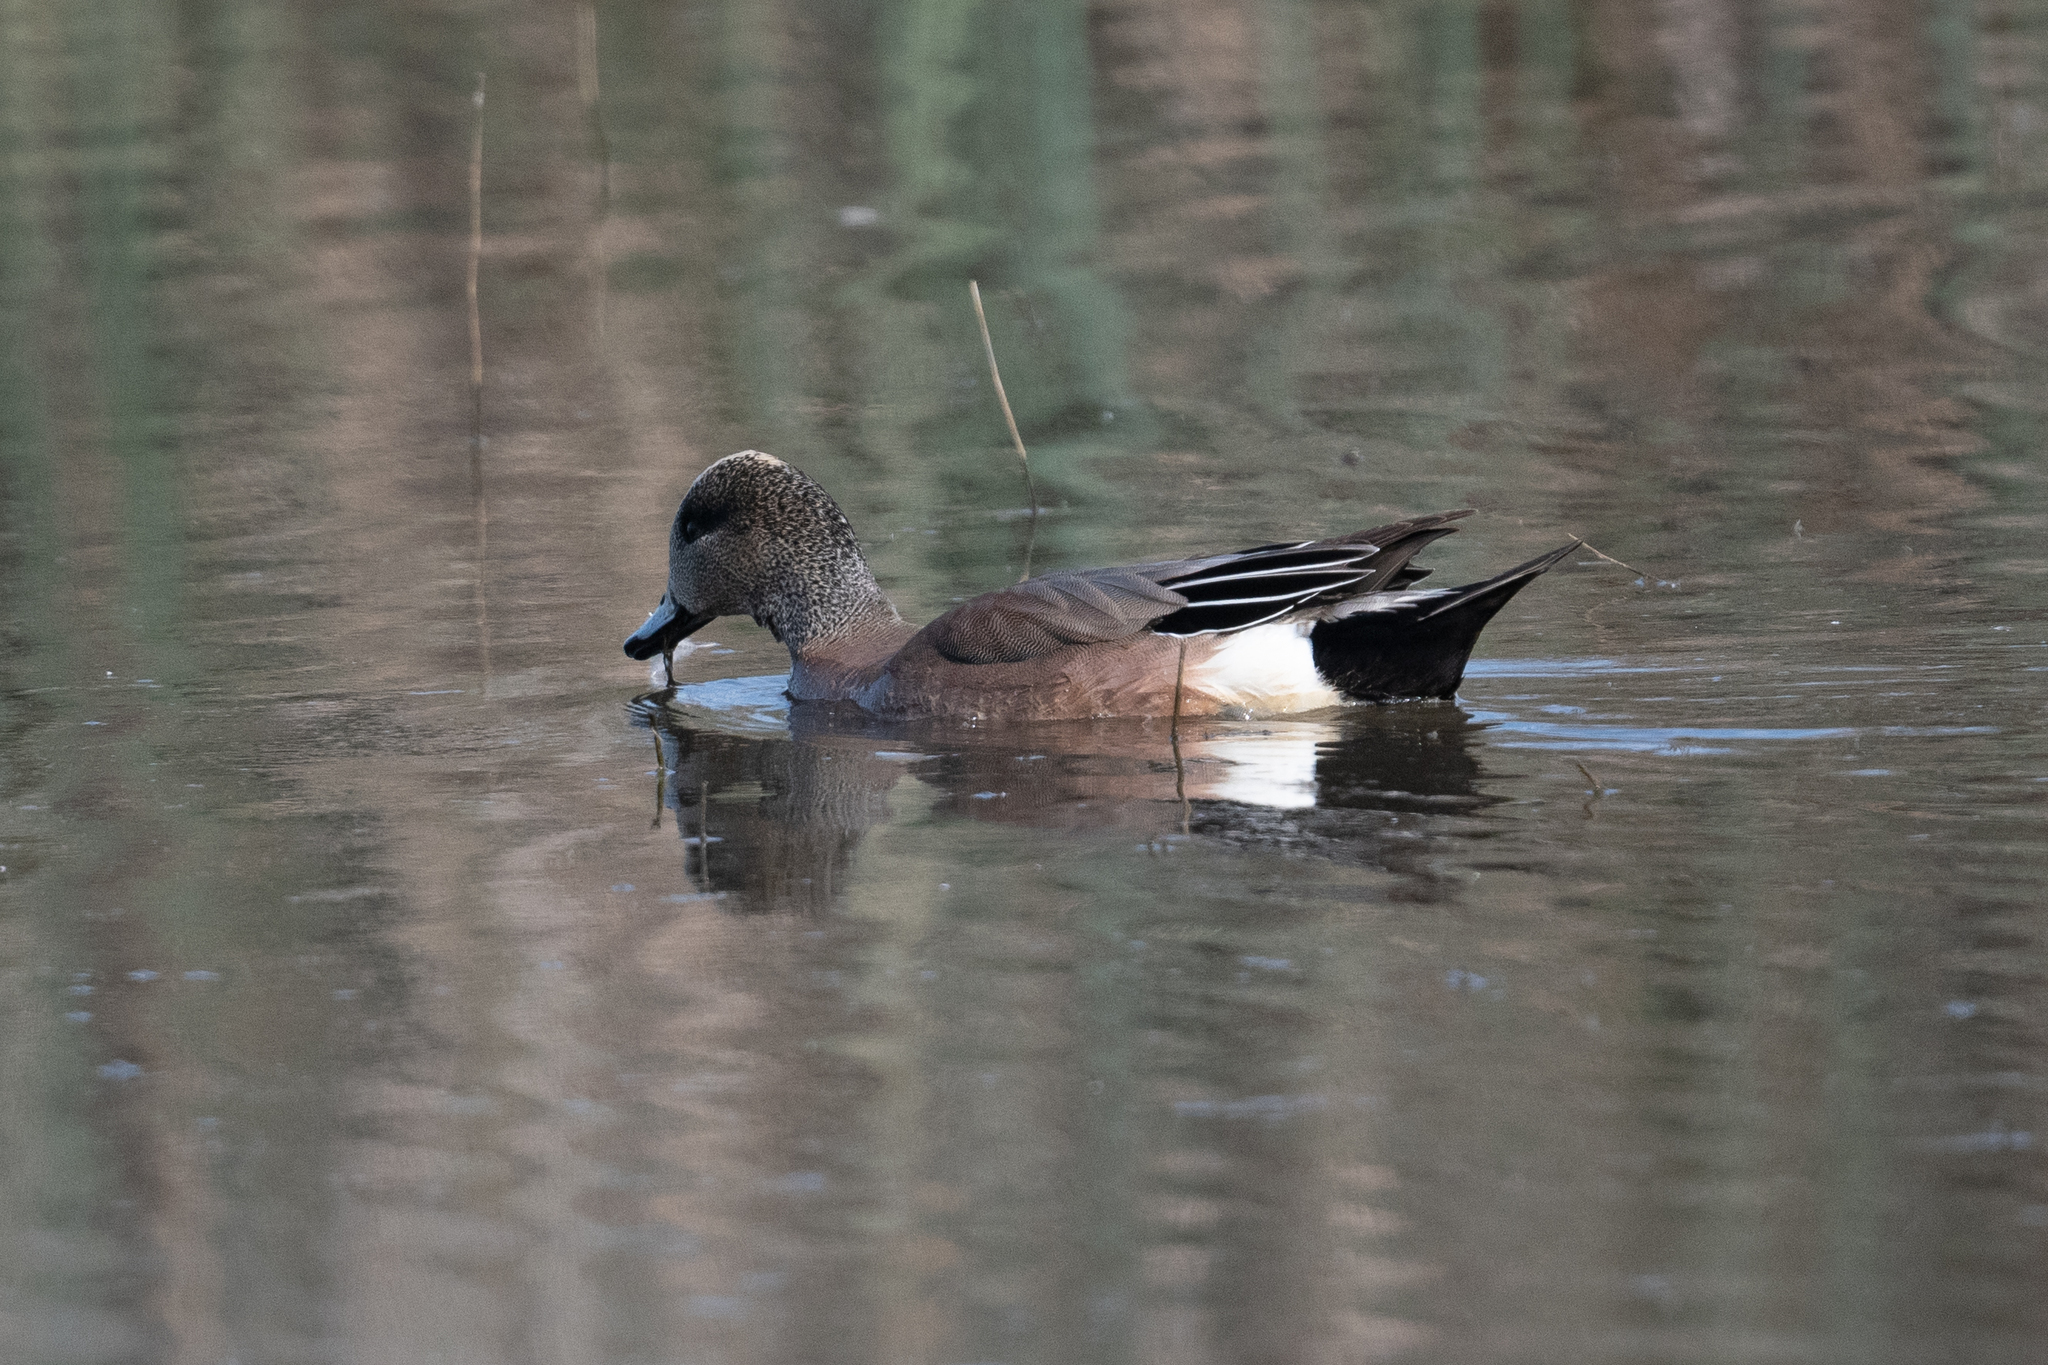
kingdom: Animalia
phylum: Chordata
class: Aves
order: Anseriformes
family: Anatidae
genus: Mareca
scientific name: Mareca americana
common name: American wigeon
